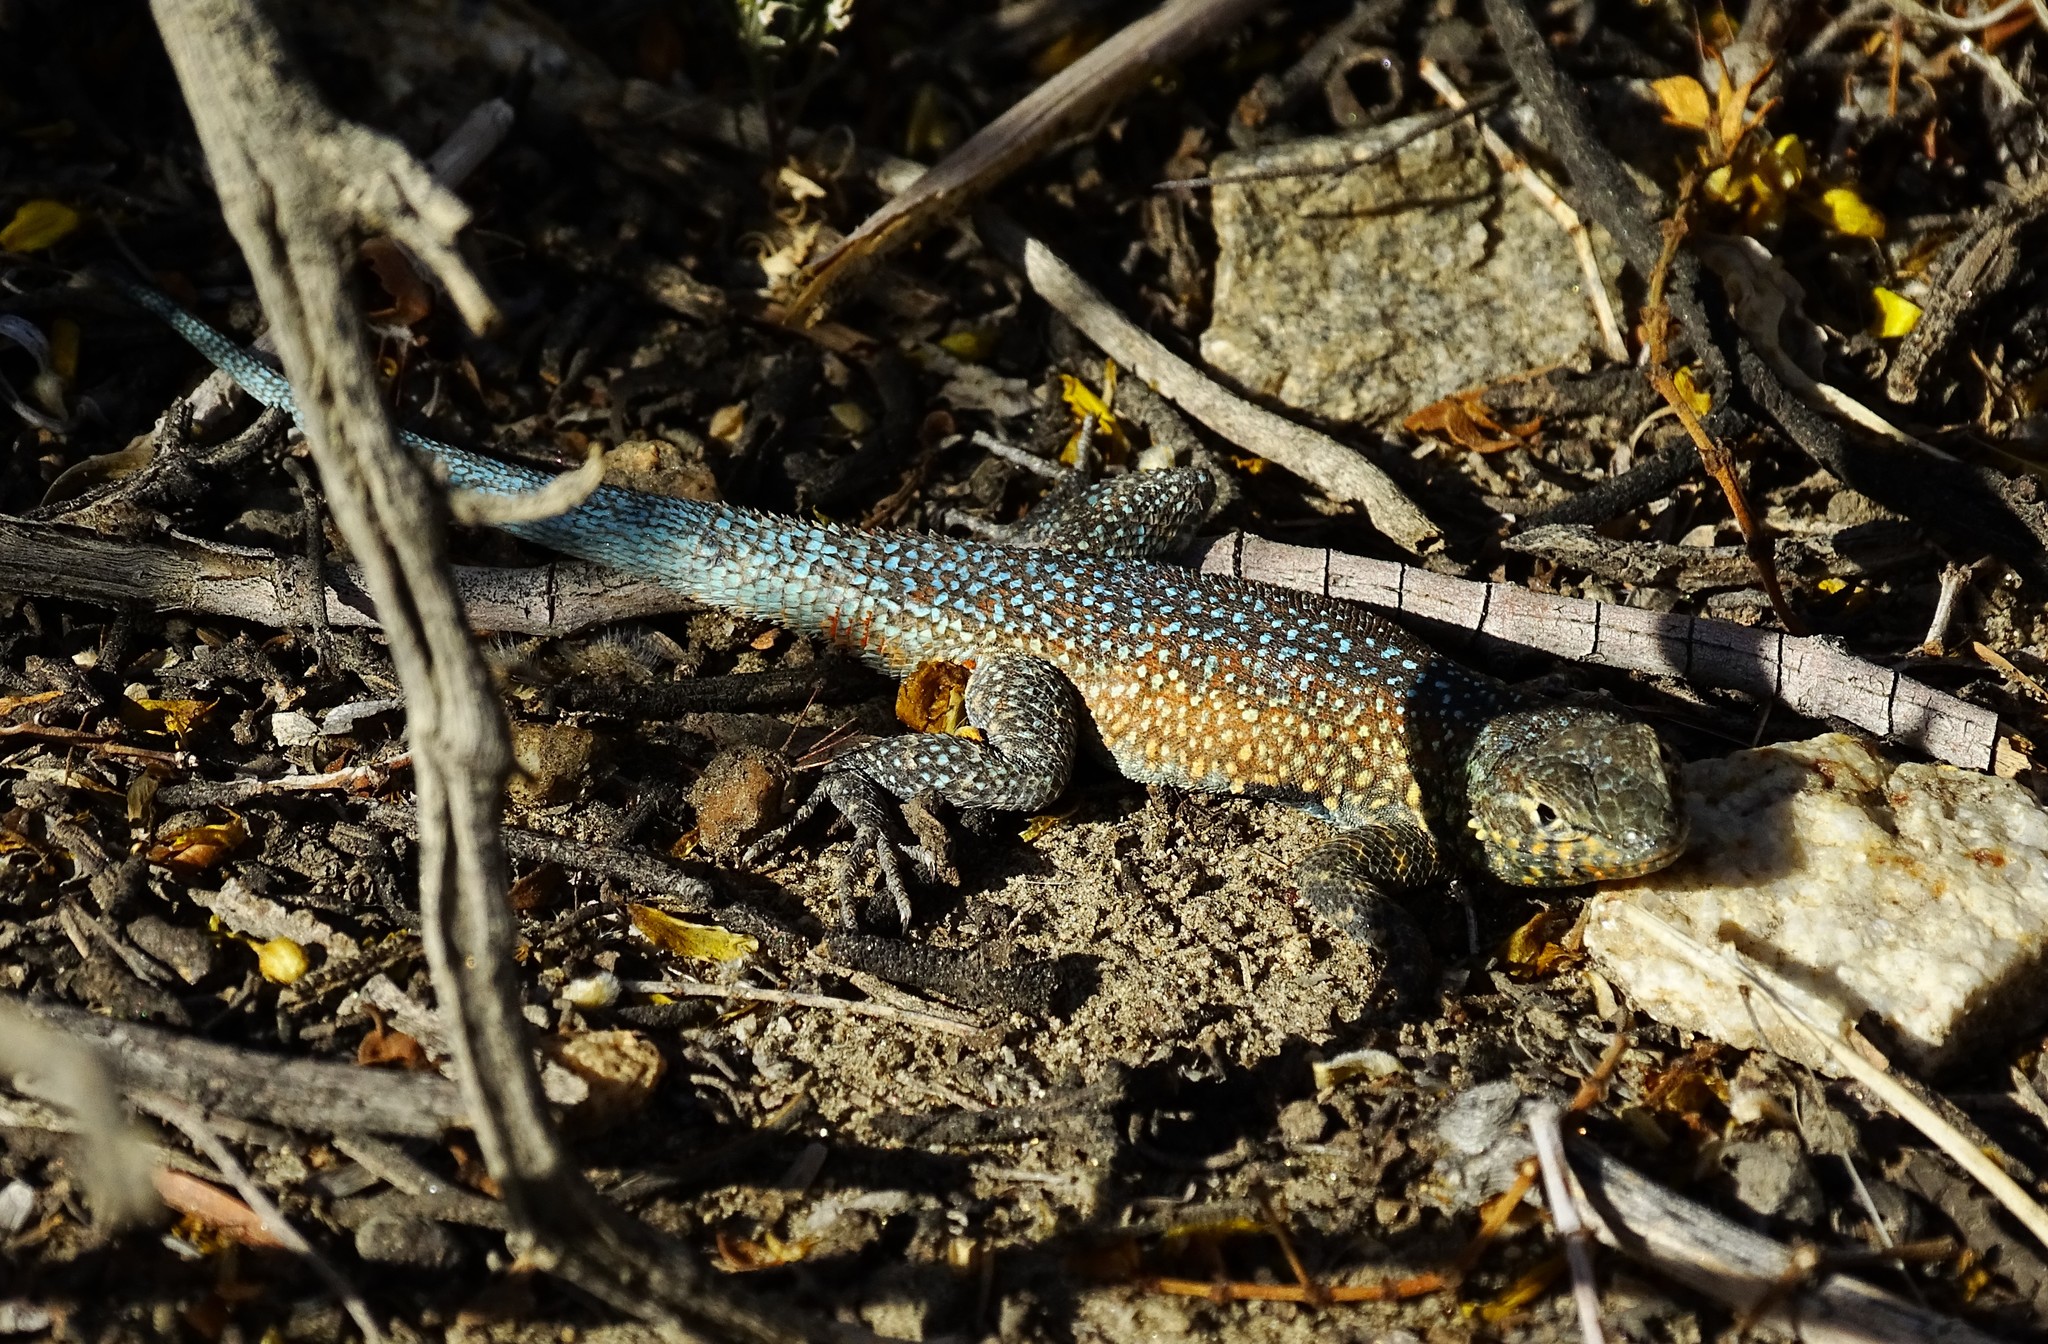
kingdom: Animalia
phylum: Chordata
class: Squamata
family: Phrynosomatidae
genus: Uta
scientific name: Uta stansburiana
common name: Side-blotched lizard
